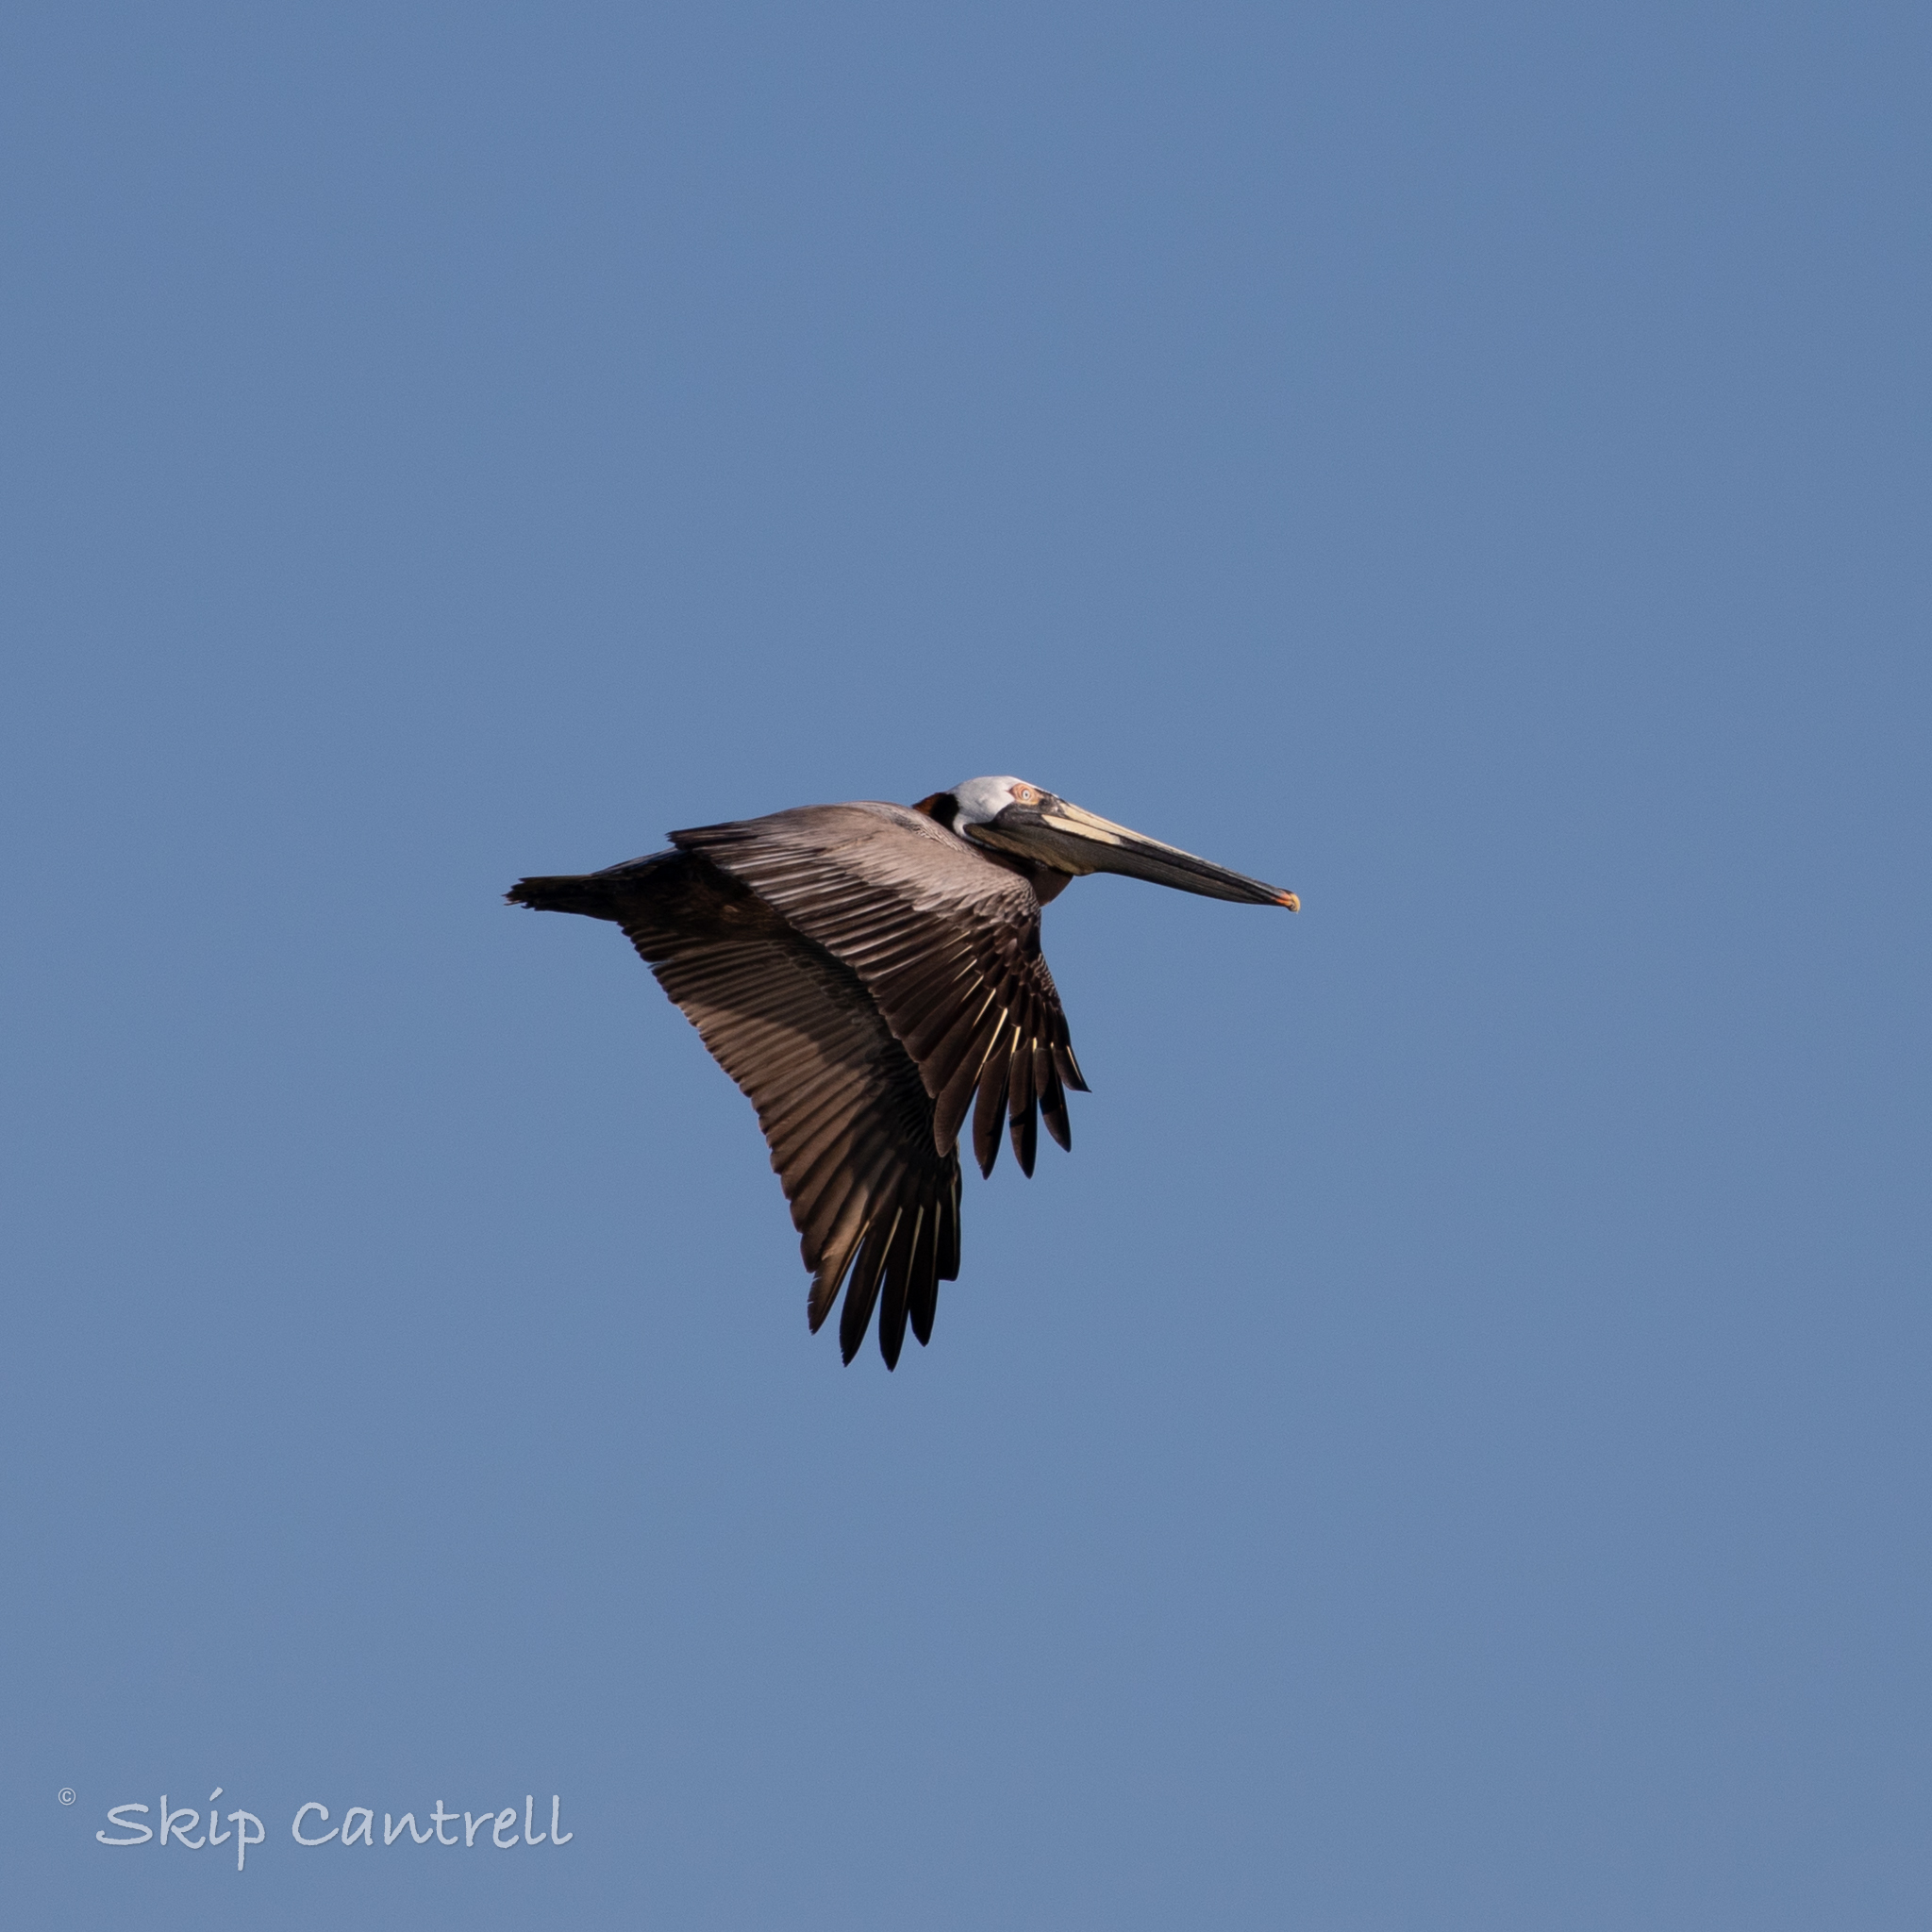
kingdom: Animalia
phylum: Chordata
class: Aves
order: Pelecaniformes
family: Pelecanidae
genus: Pelecanus
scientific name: Pelecanus occidentalis
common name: Brown pelican
